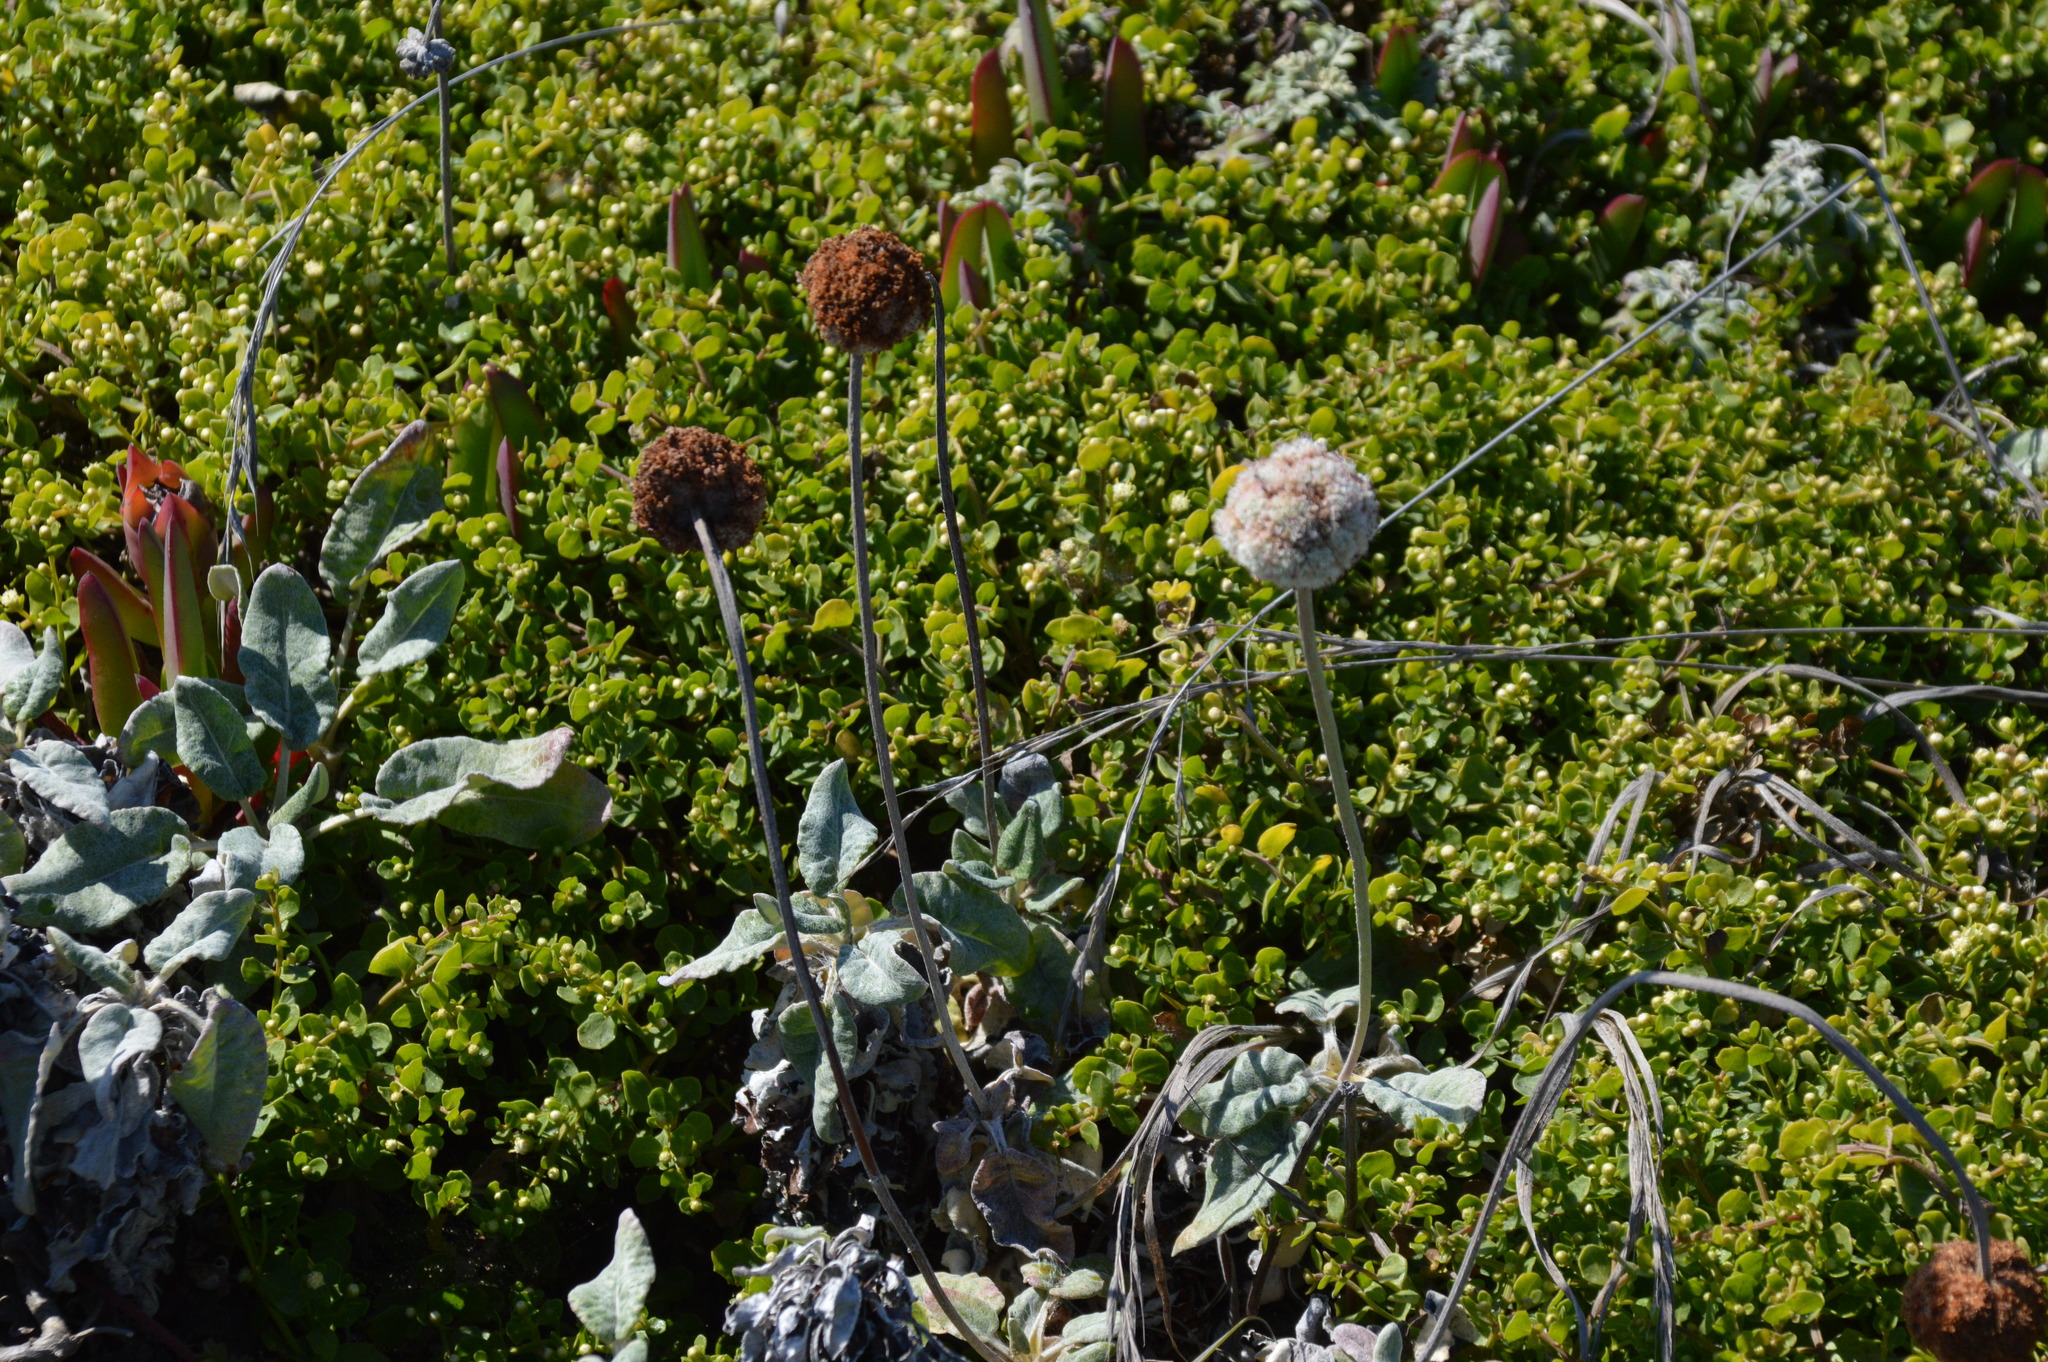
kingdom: Plantae
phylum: Tracheophyta
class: Magnoliopsida
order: Caryophyllales
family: Polygonaceae
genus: Eriogonum
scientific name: Eriogonum latifolium
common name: Seaside wild buckwheat
